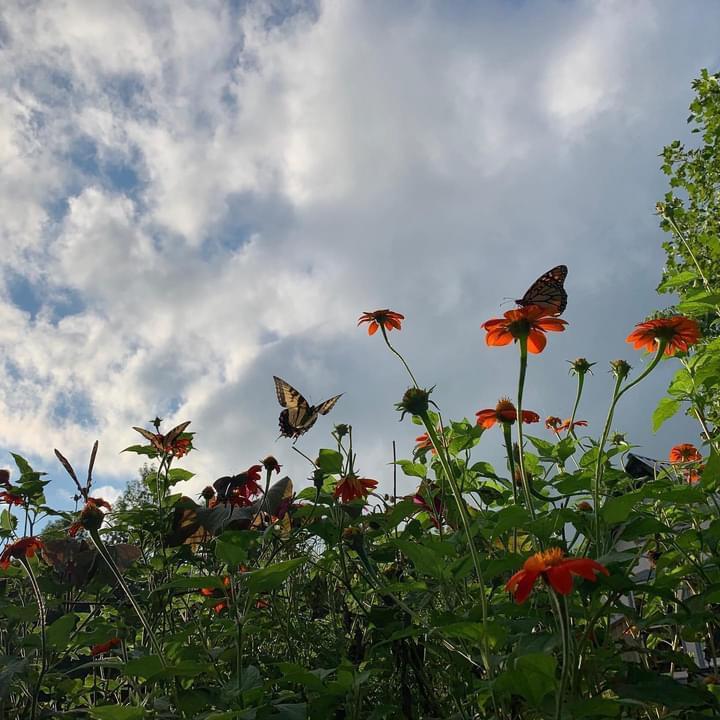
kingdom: Animalia
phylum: Arthropoda
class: Insecta
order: Lepidoptera
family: Nymphalidae
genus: Danaus
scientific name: Danaus plexippus
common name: Monarch
